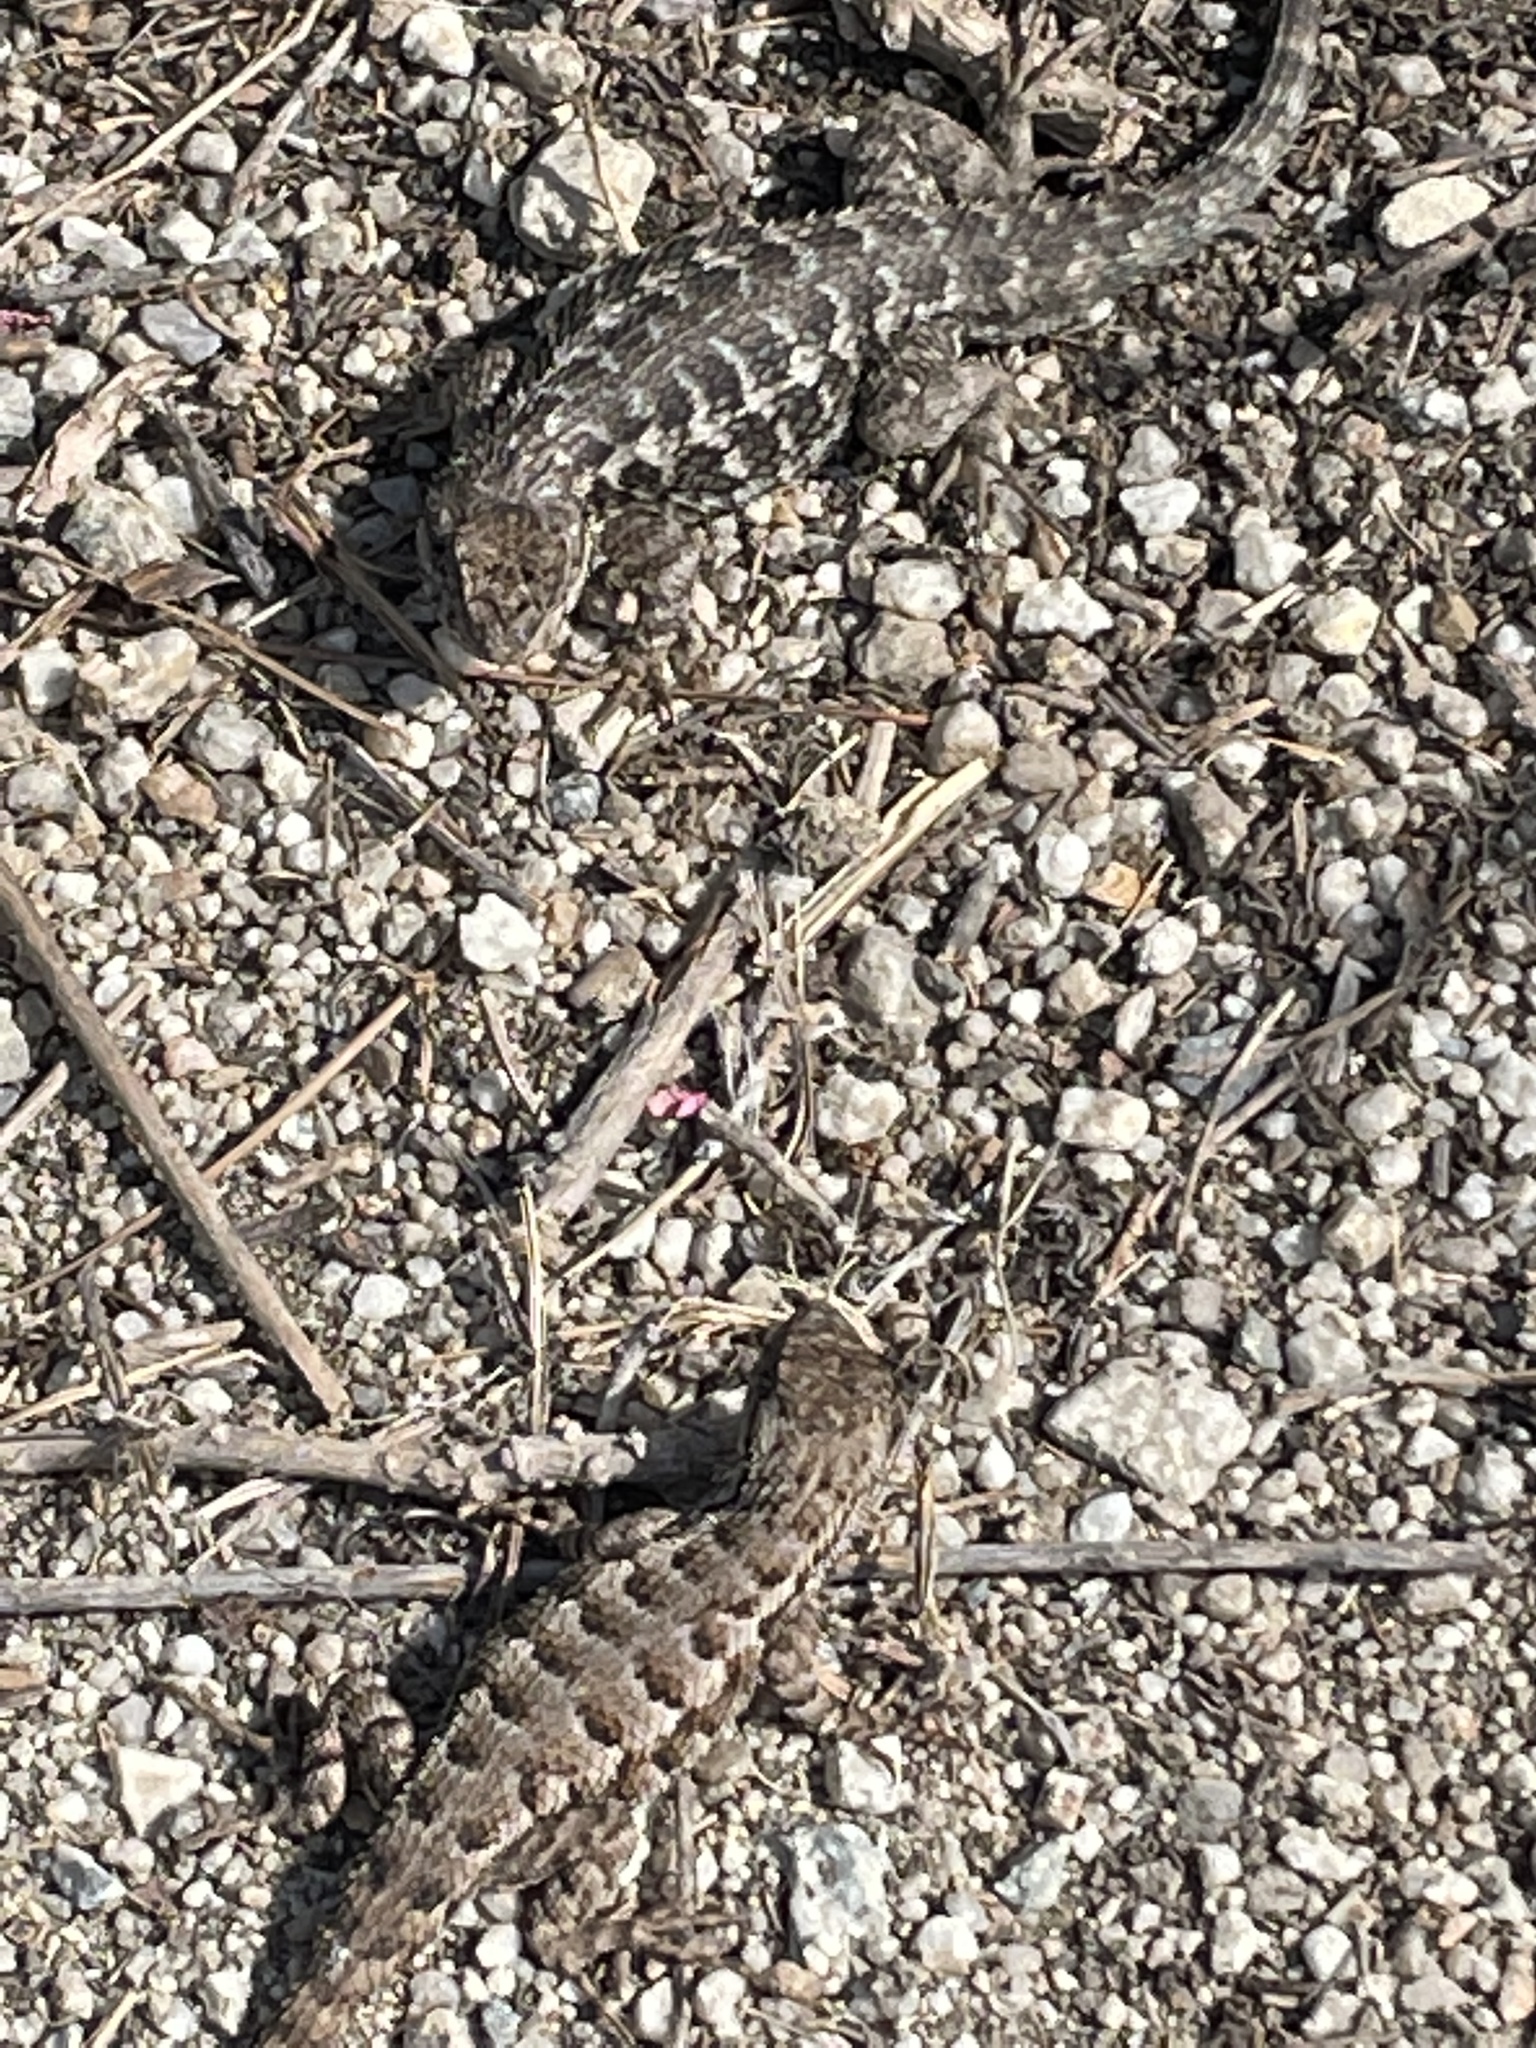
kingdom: Animalia
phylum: Chordata
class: Squamata
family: Phrynosomatidae
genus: Sceloporus
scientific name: Sceloporus occidentalis
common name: Western fence lizard
